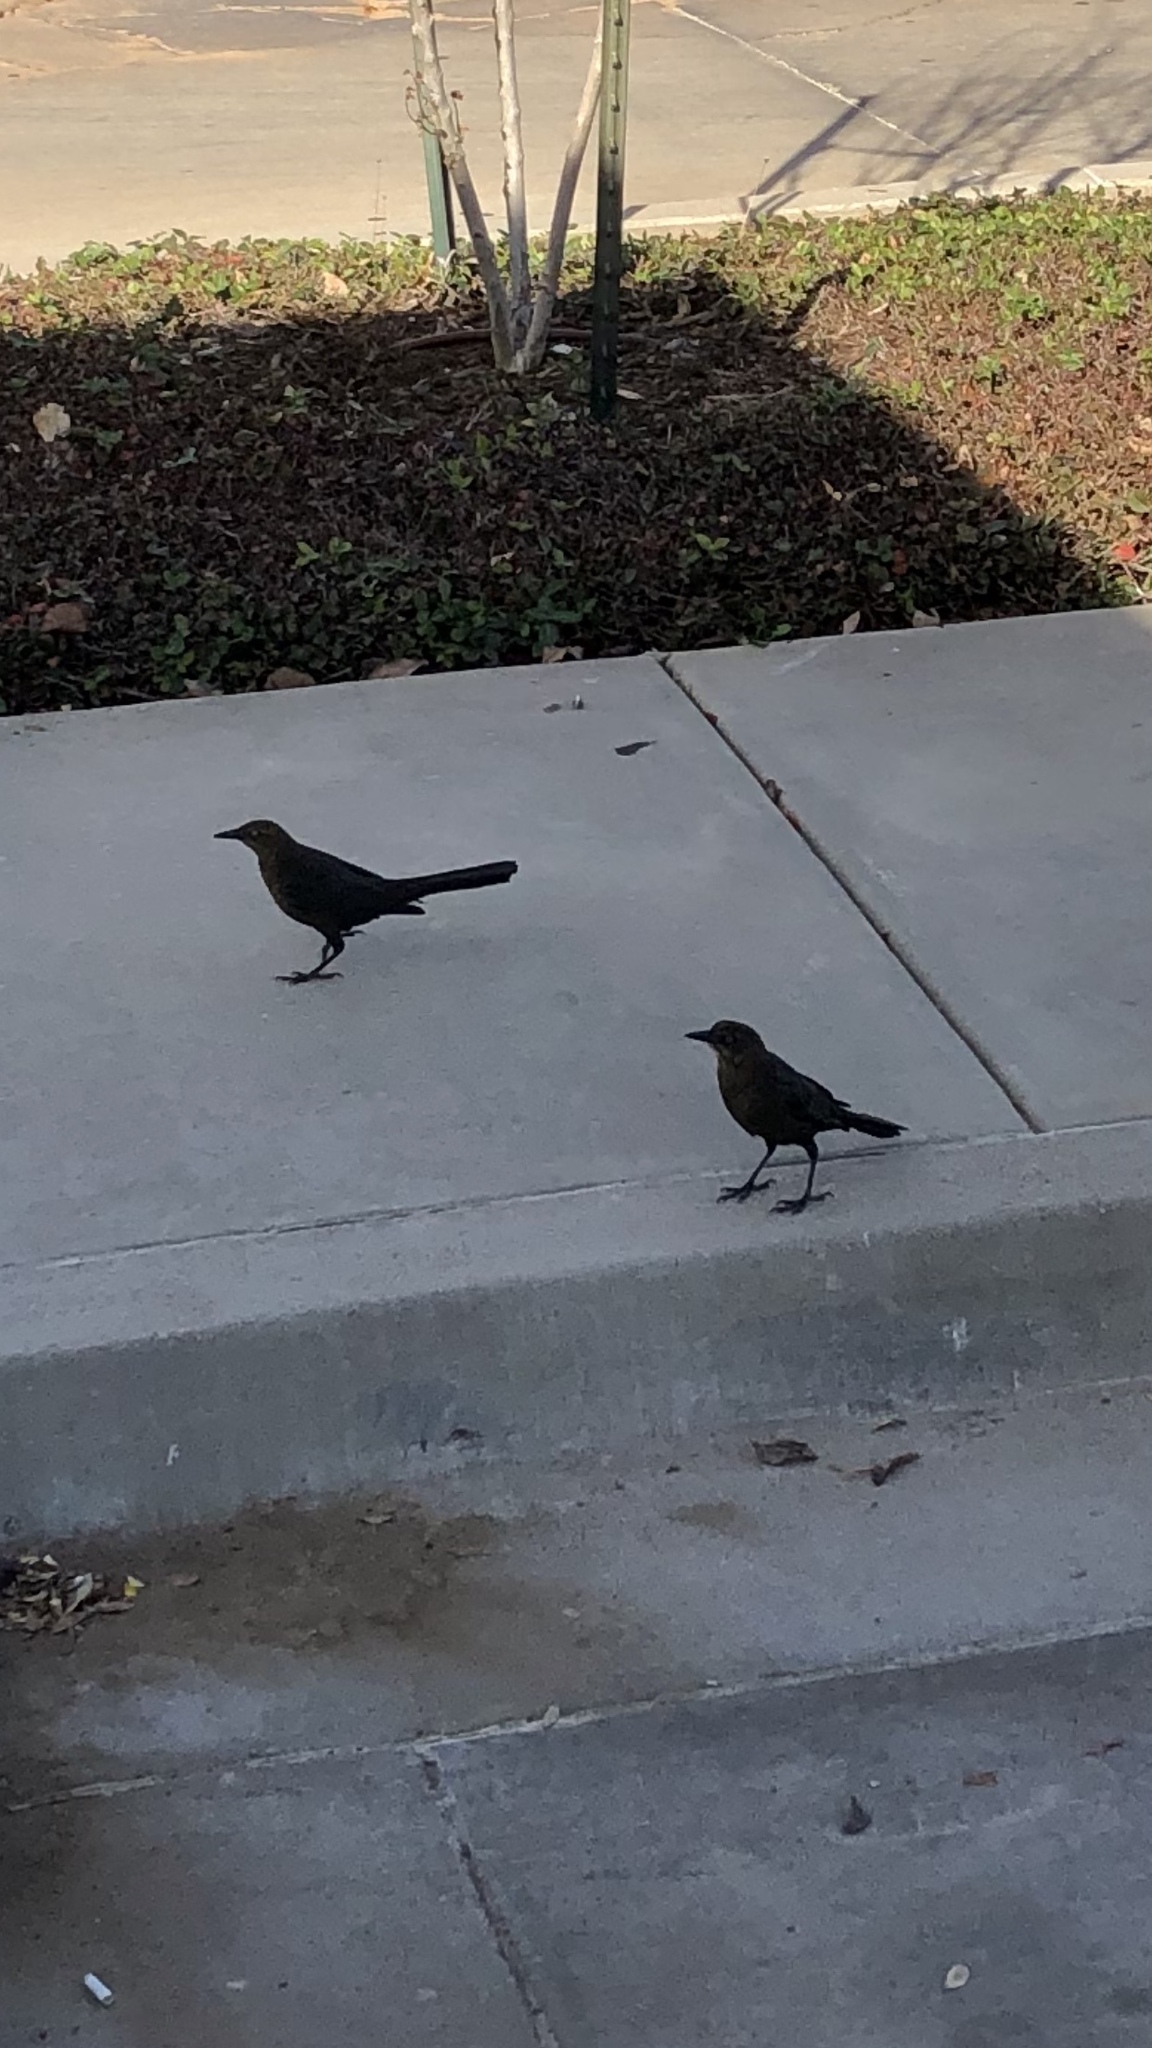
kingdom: Animalia
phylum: Chordata
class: Aves
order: Passeriformes
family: Icteridae
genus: Quiscalus
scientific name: Quiscalus mexicanus
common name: Great-tailed grackle
